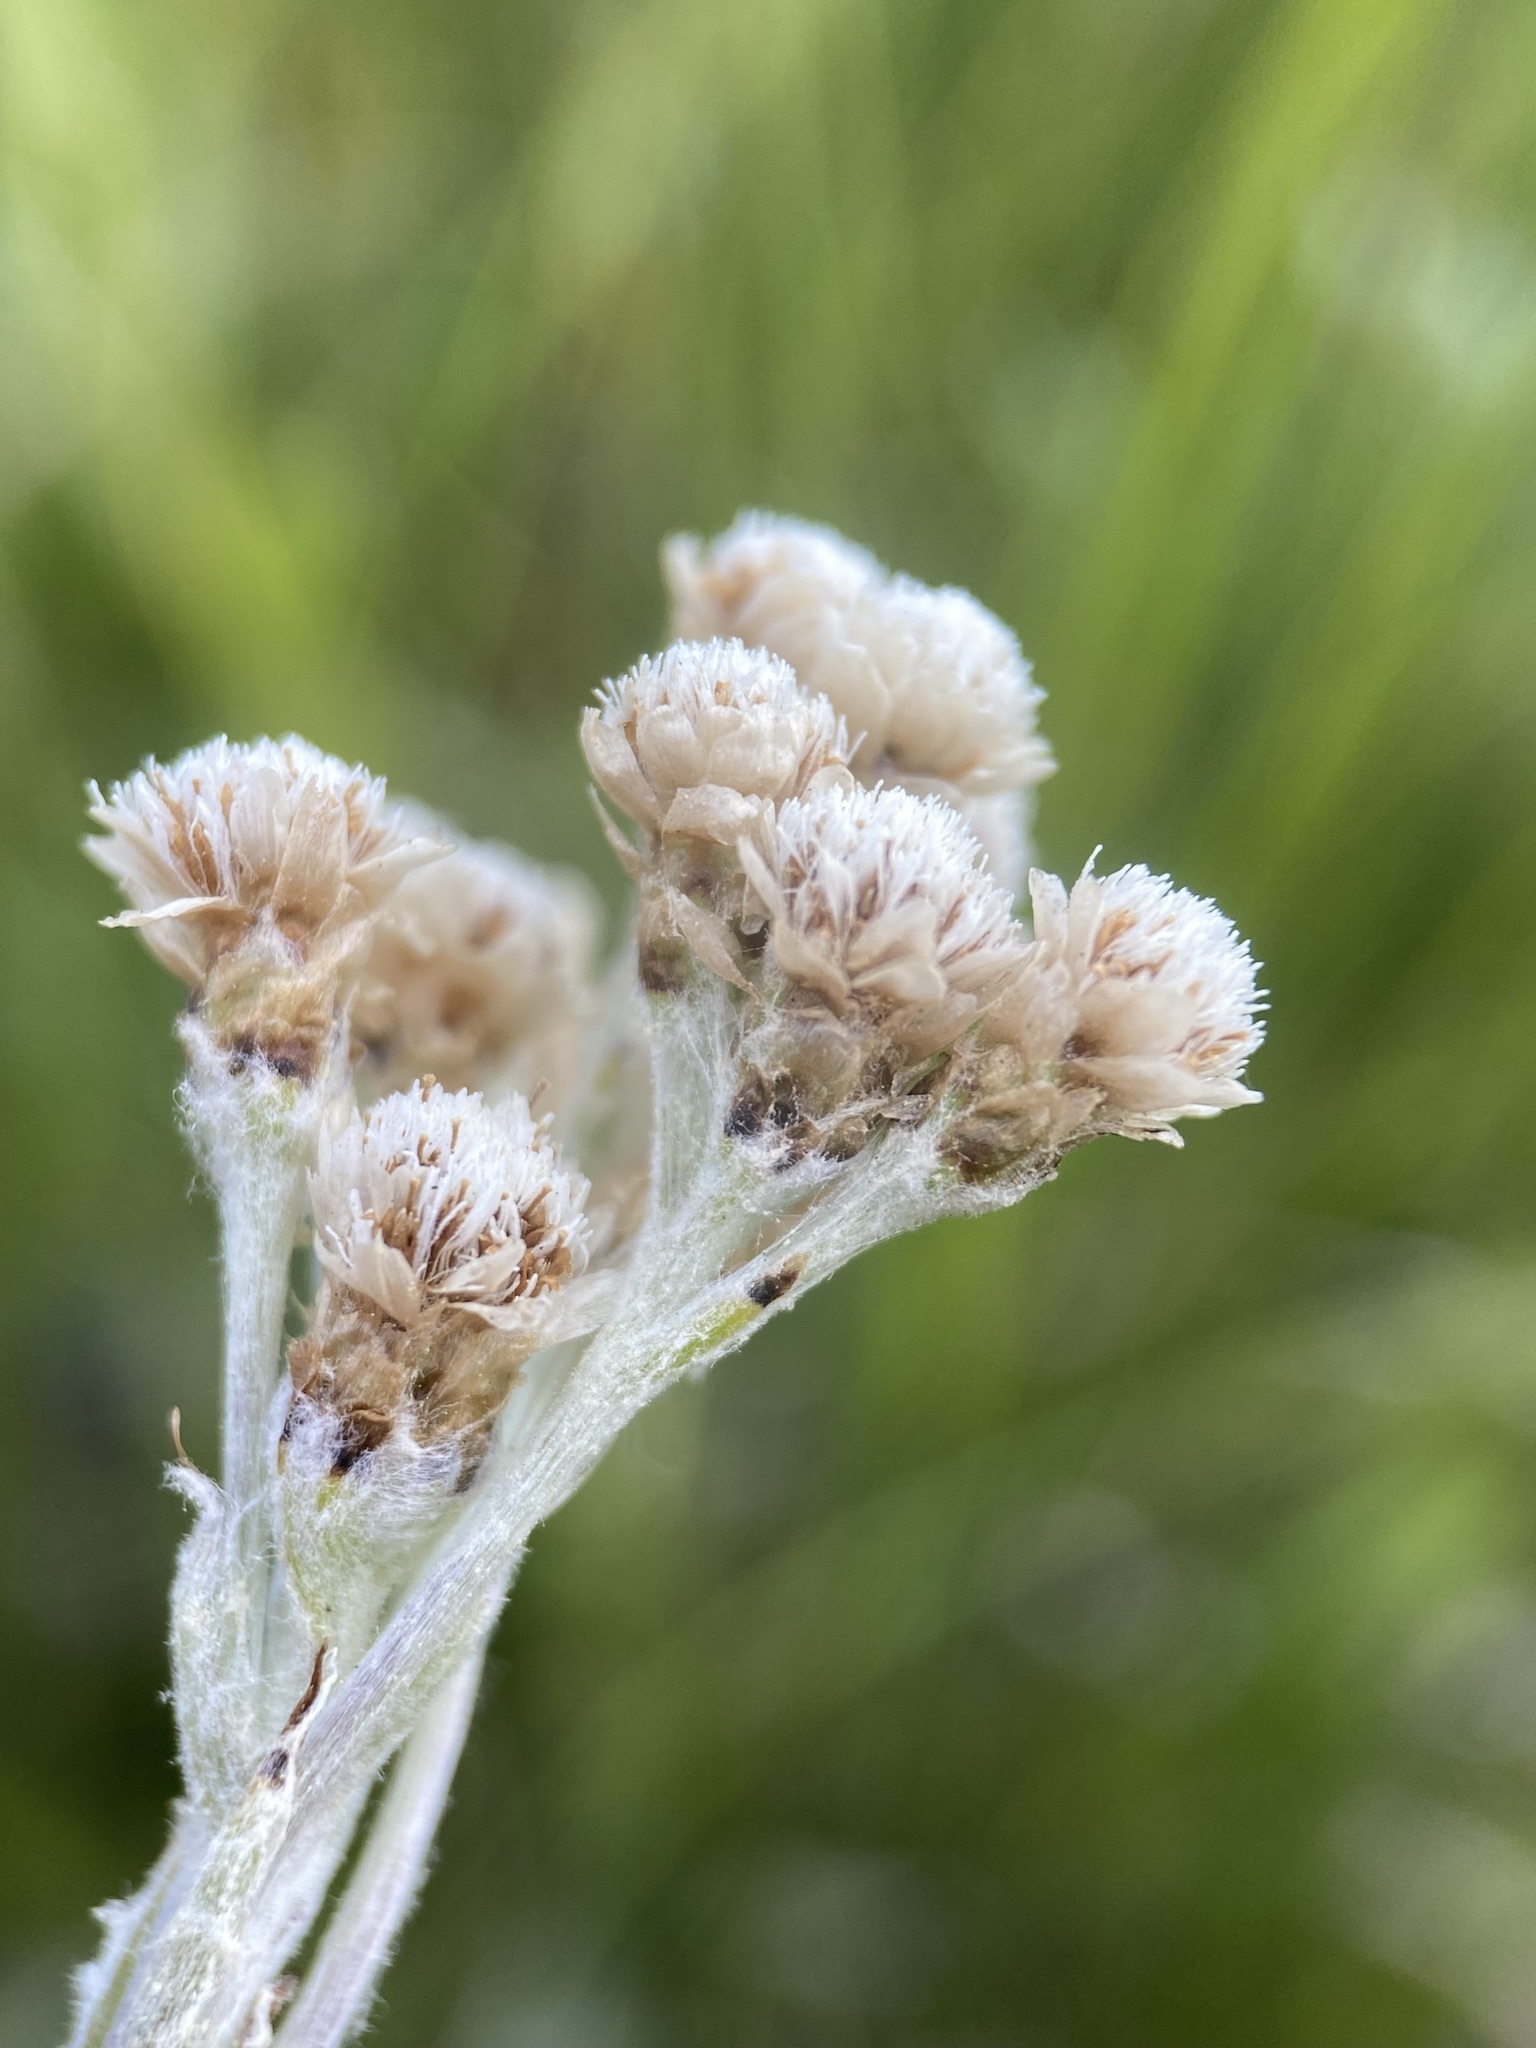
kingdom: Plantae
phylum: Tracheophyta
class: Magnoliopsida
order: Asterales
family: Asteraceae
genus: Antennaria
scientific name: Antennaria pulcherrima
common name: Handsome pussytoes
